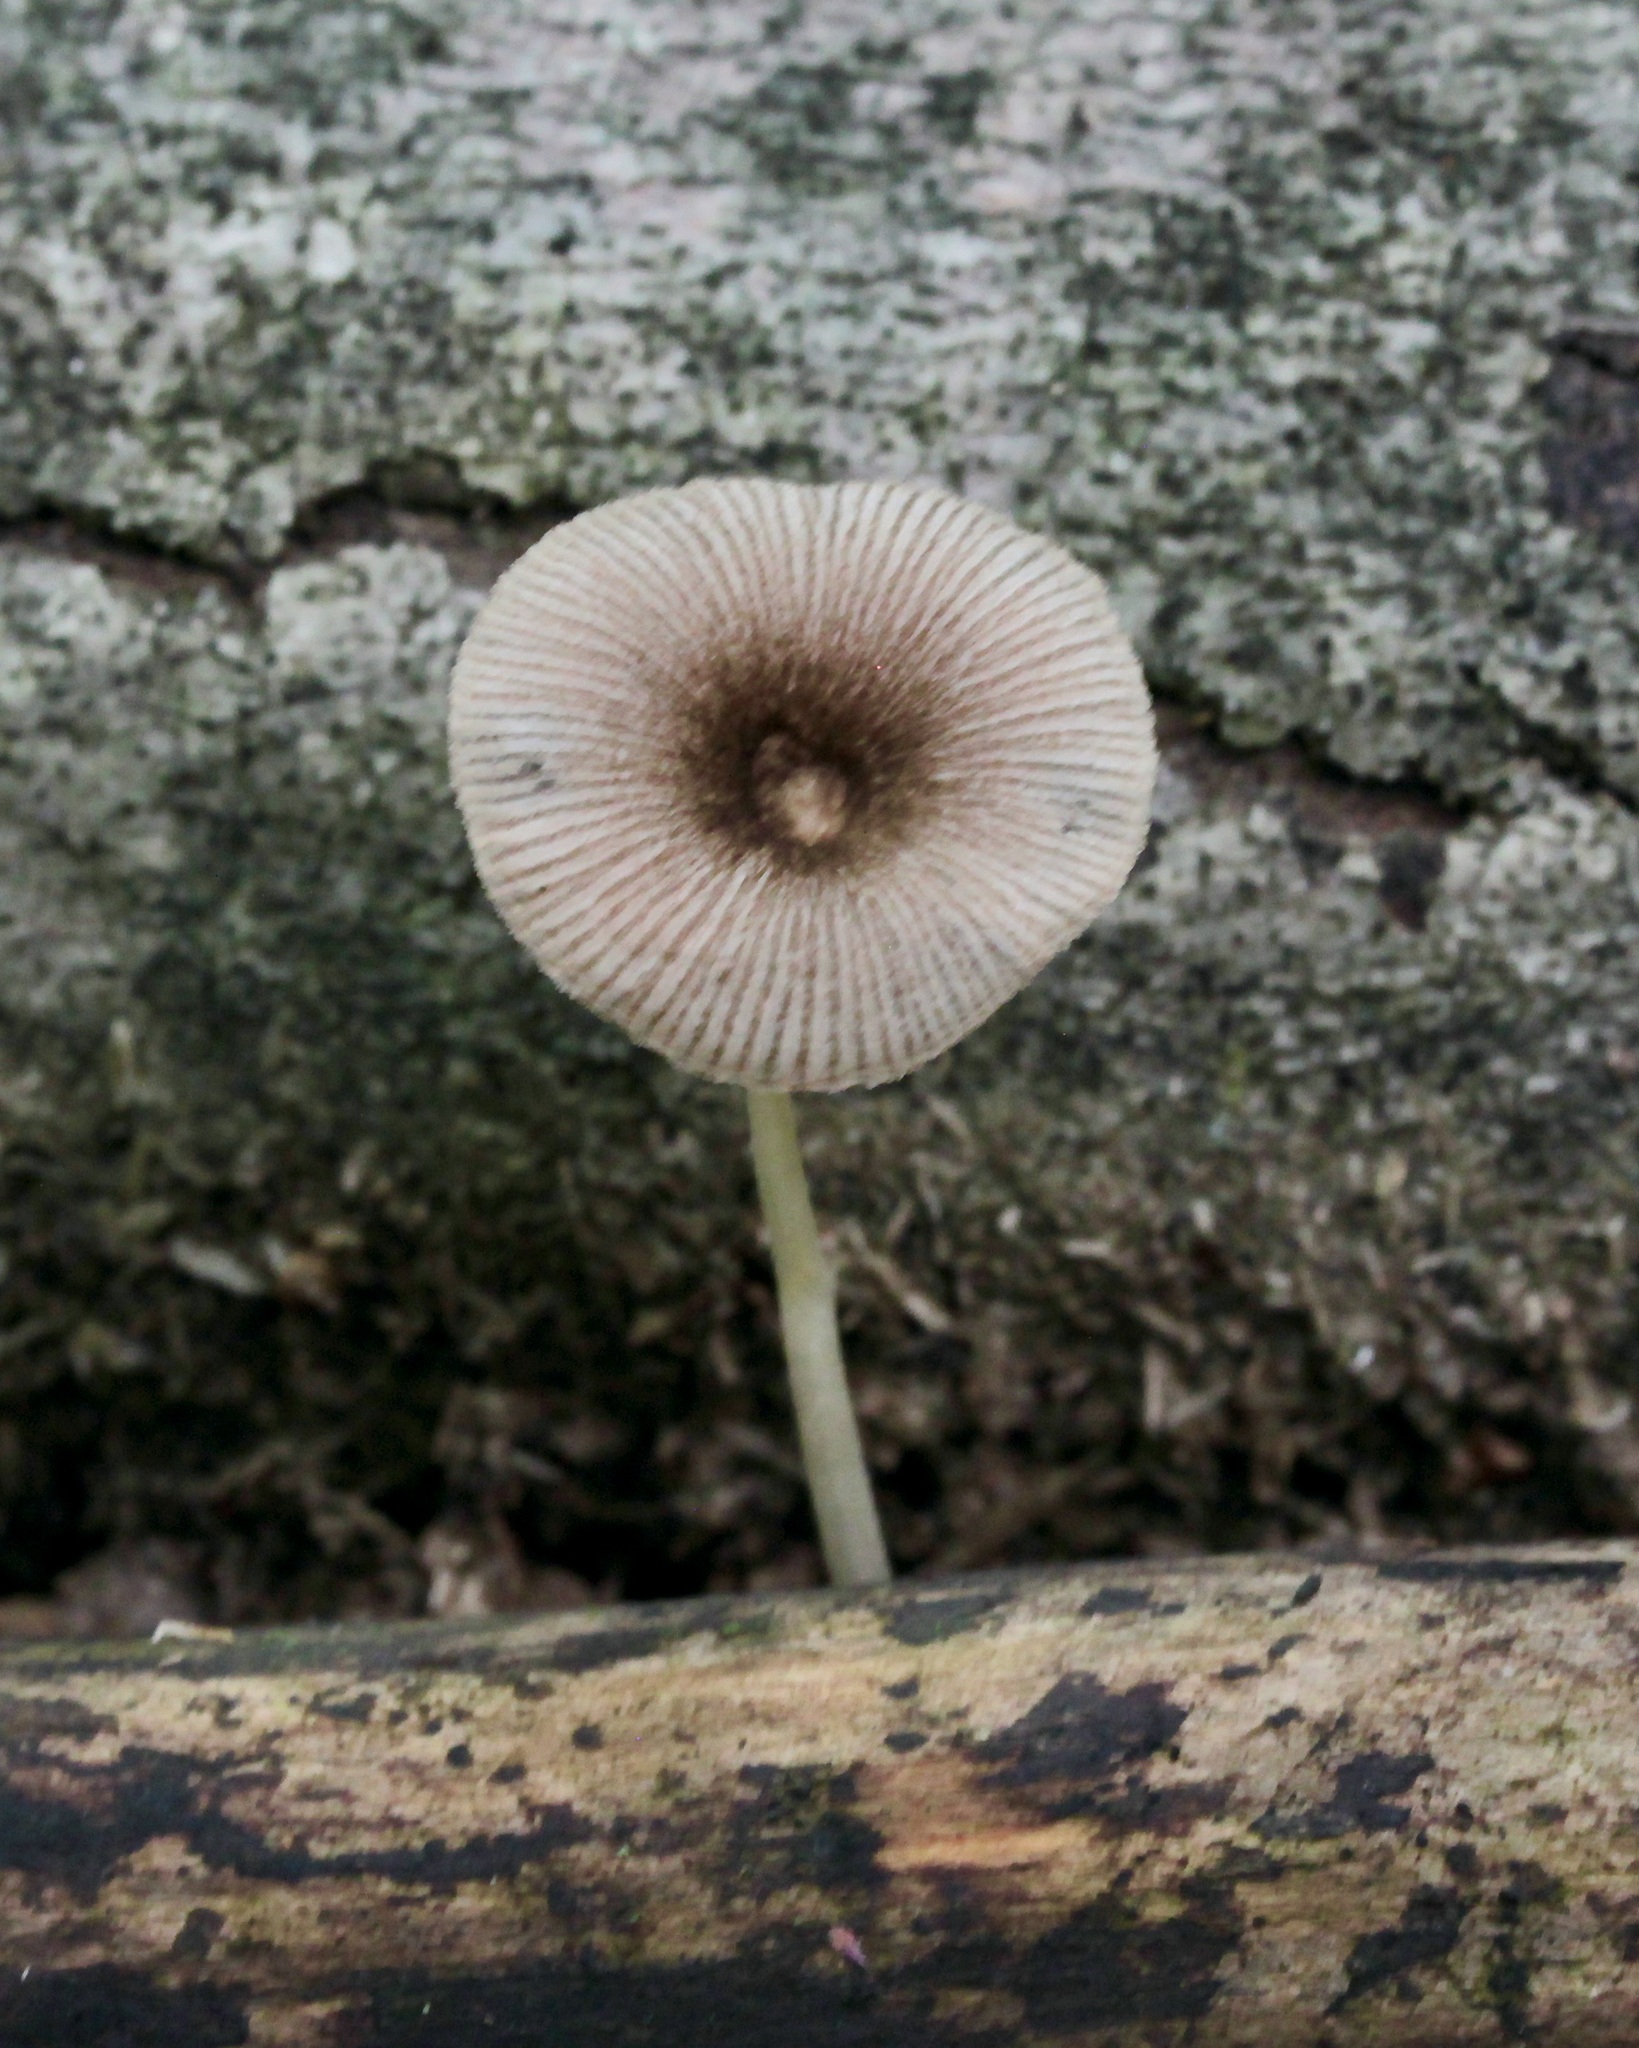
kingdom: Fungi
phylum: Basidiomycota
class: Agaricomycetes
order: Agaricales
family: Pluteaceae
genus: Pluteus
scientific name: Pluteus longistriatus
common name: Pleated pluteus
